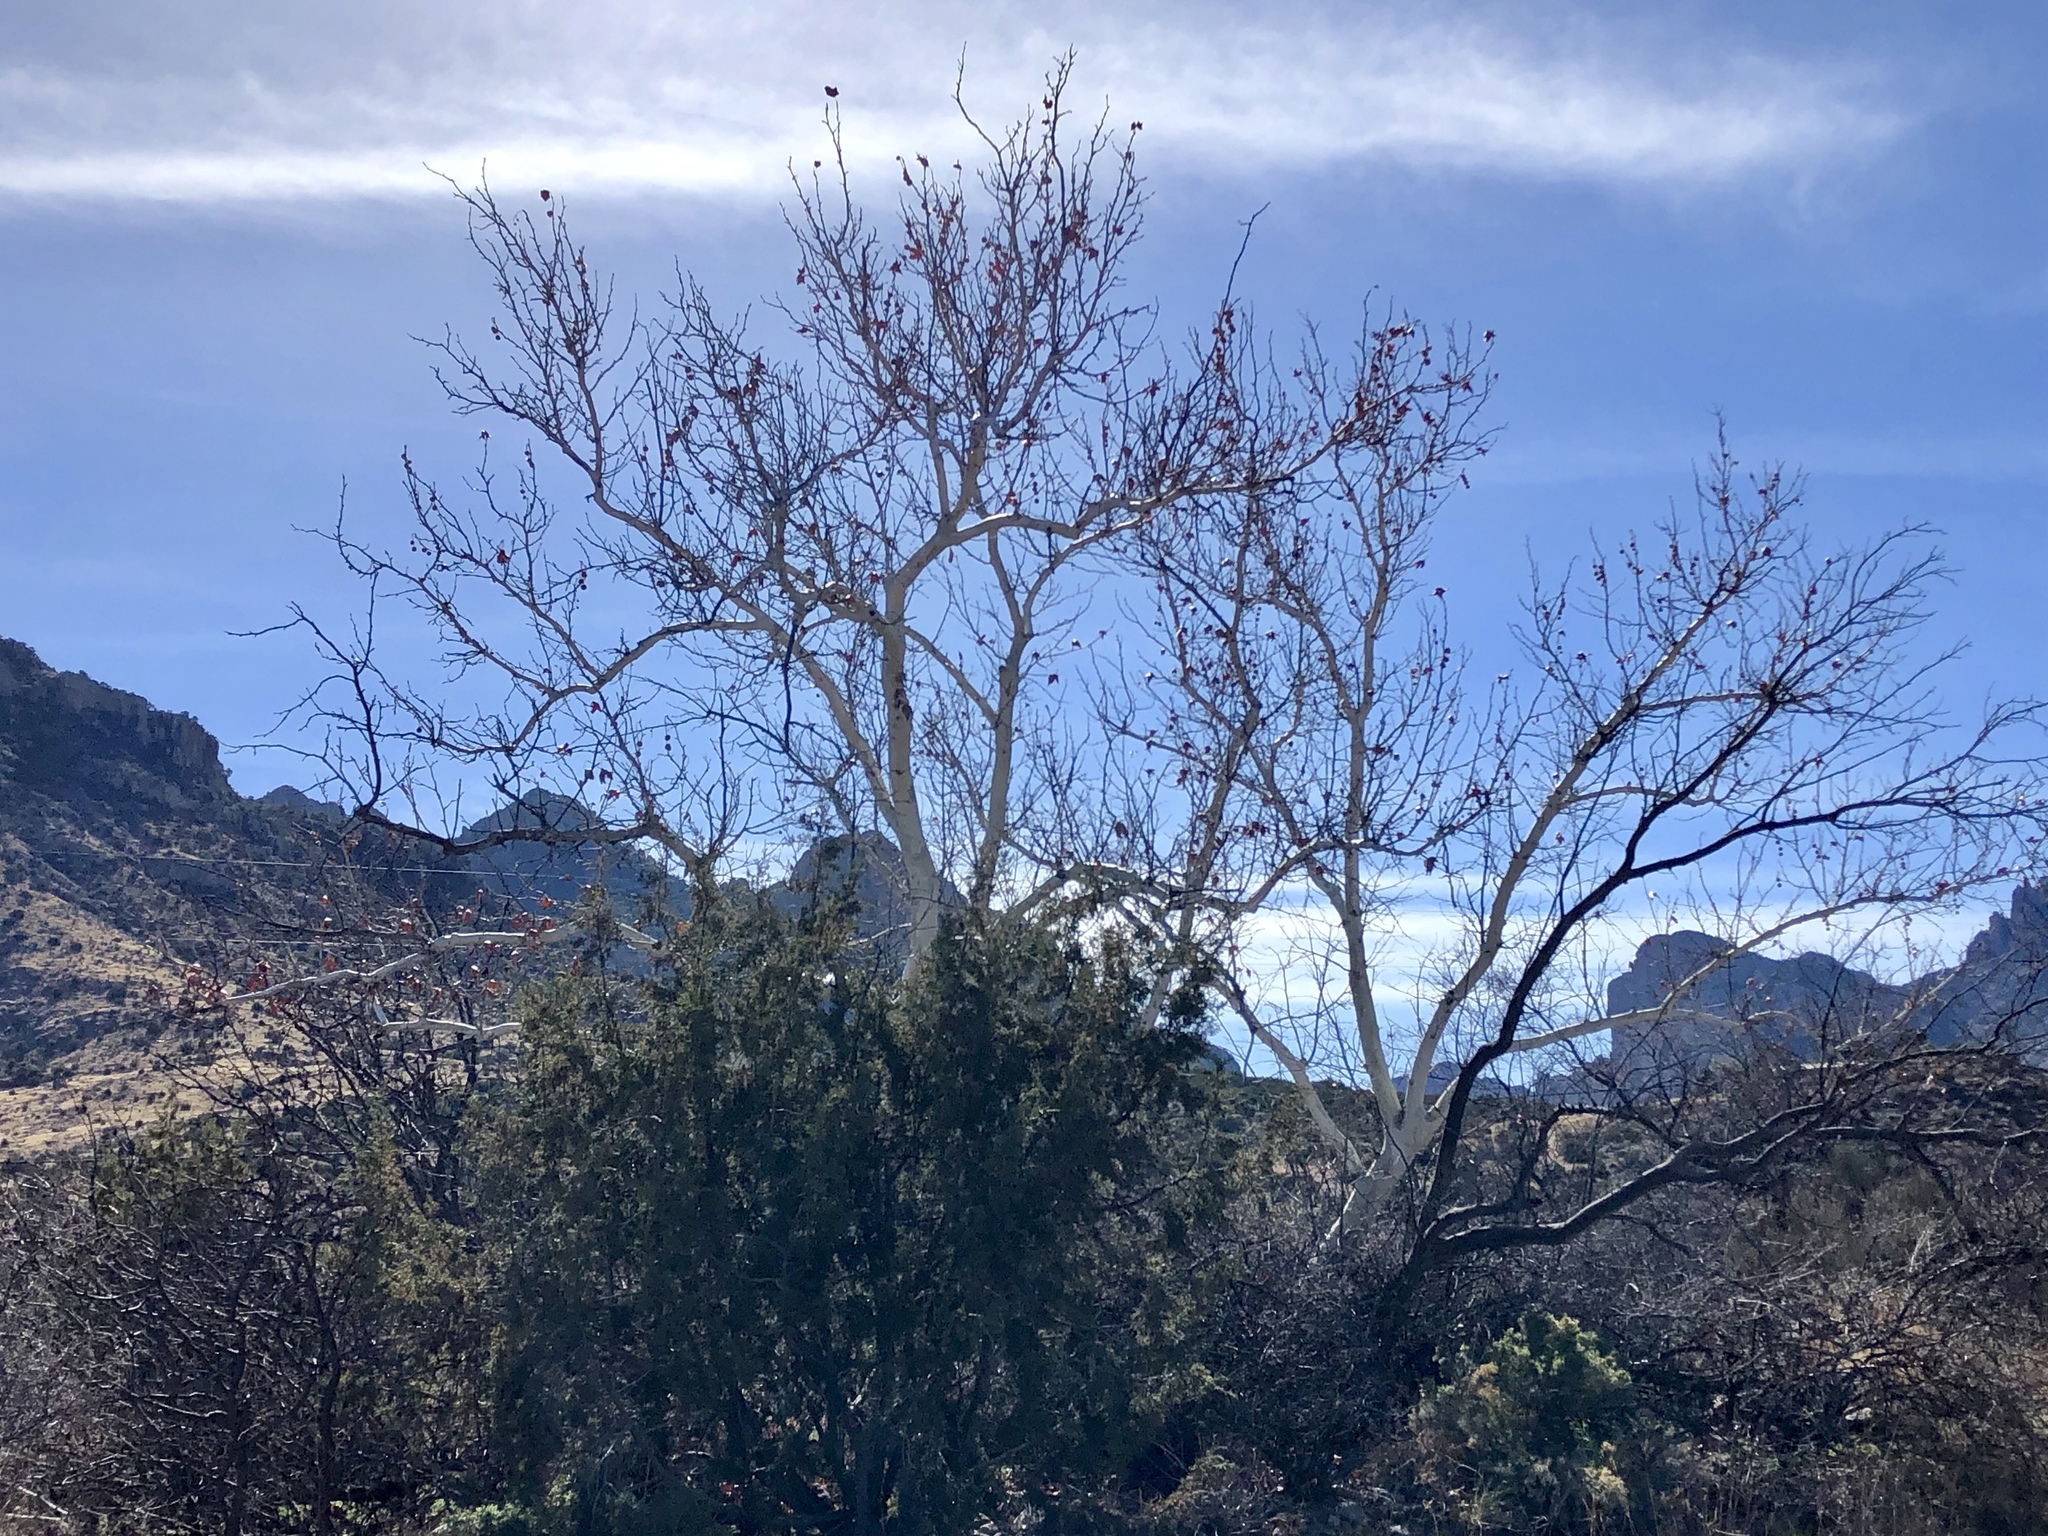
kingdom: Plantae
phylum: Tracheophyta
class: Magnoliopsida
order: Proteales
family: Platanaceae
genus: Platanus
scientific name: Platanus wrightii
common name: Arizona sycamore
